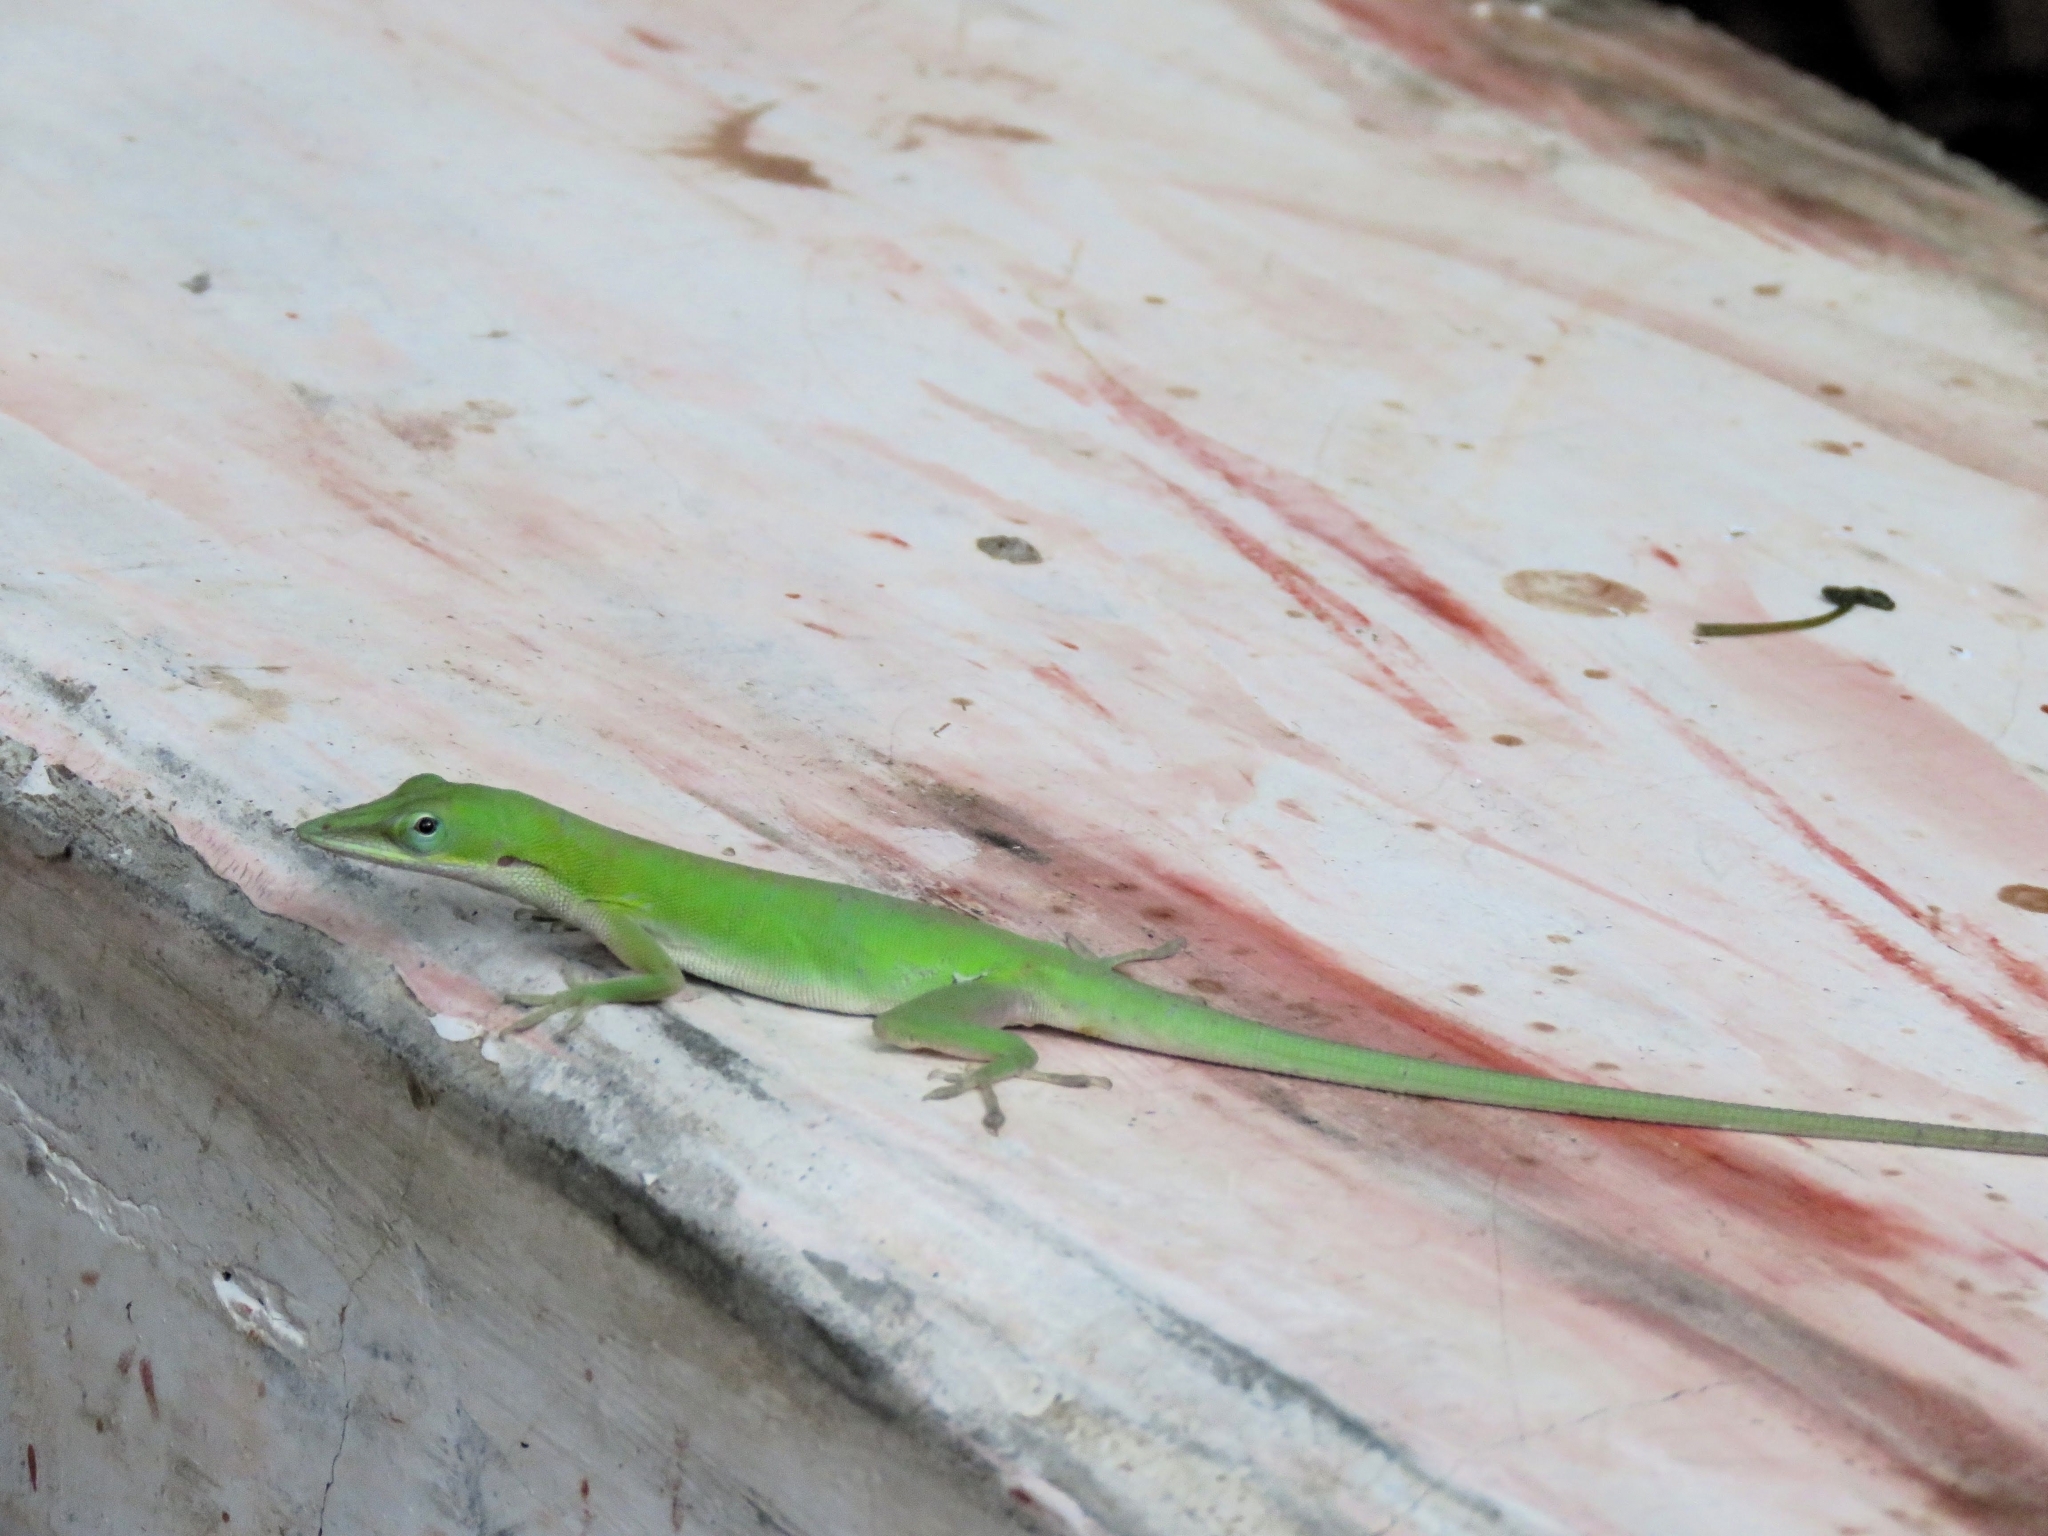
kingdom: Animalia
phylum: Chordata
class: Squamata
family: Dactyloidae
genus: Anolis
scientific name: Anolis porcatus
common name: Cuban green anole
